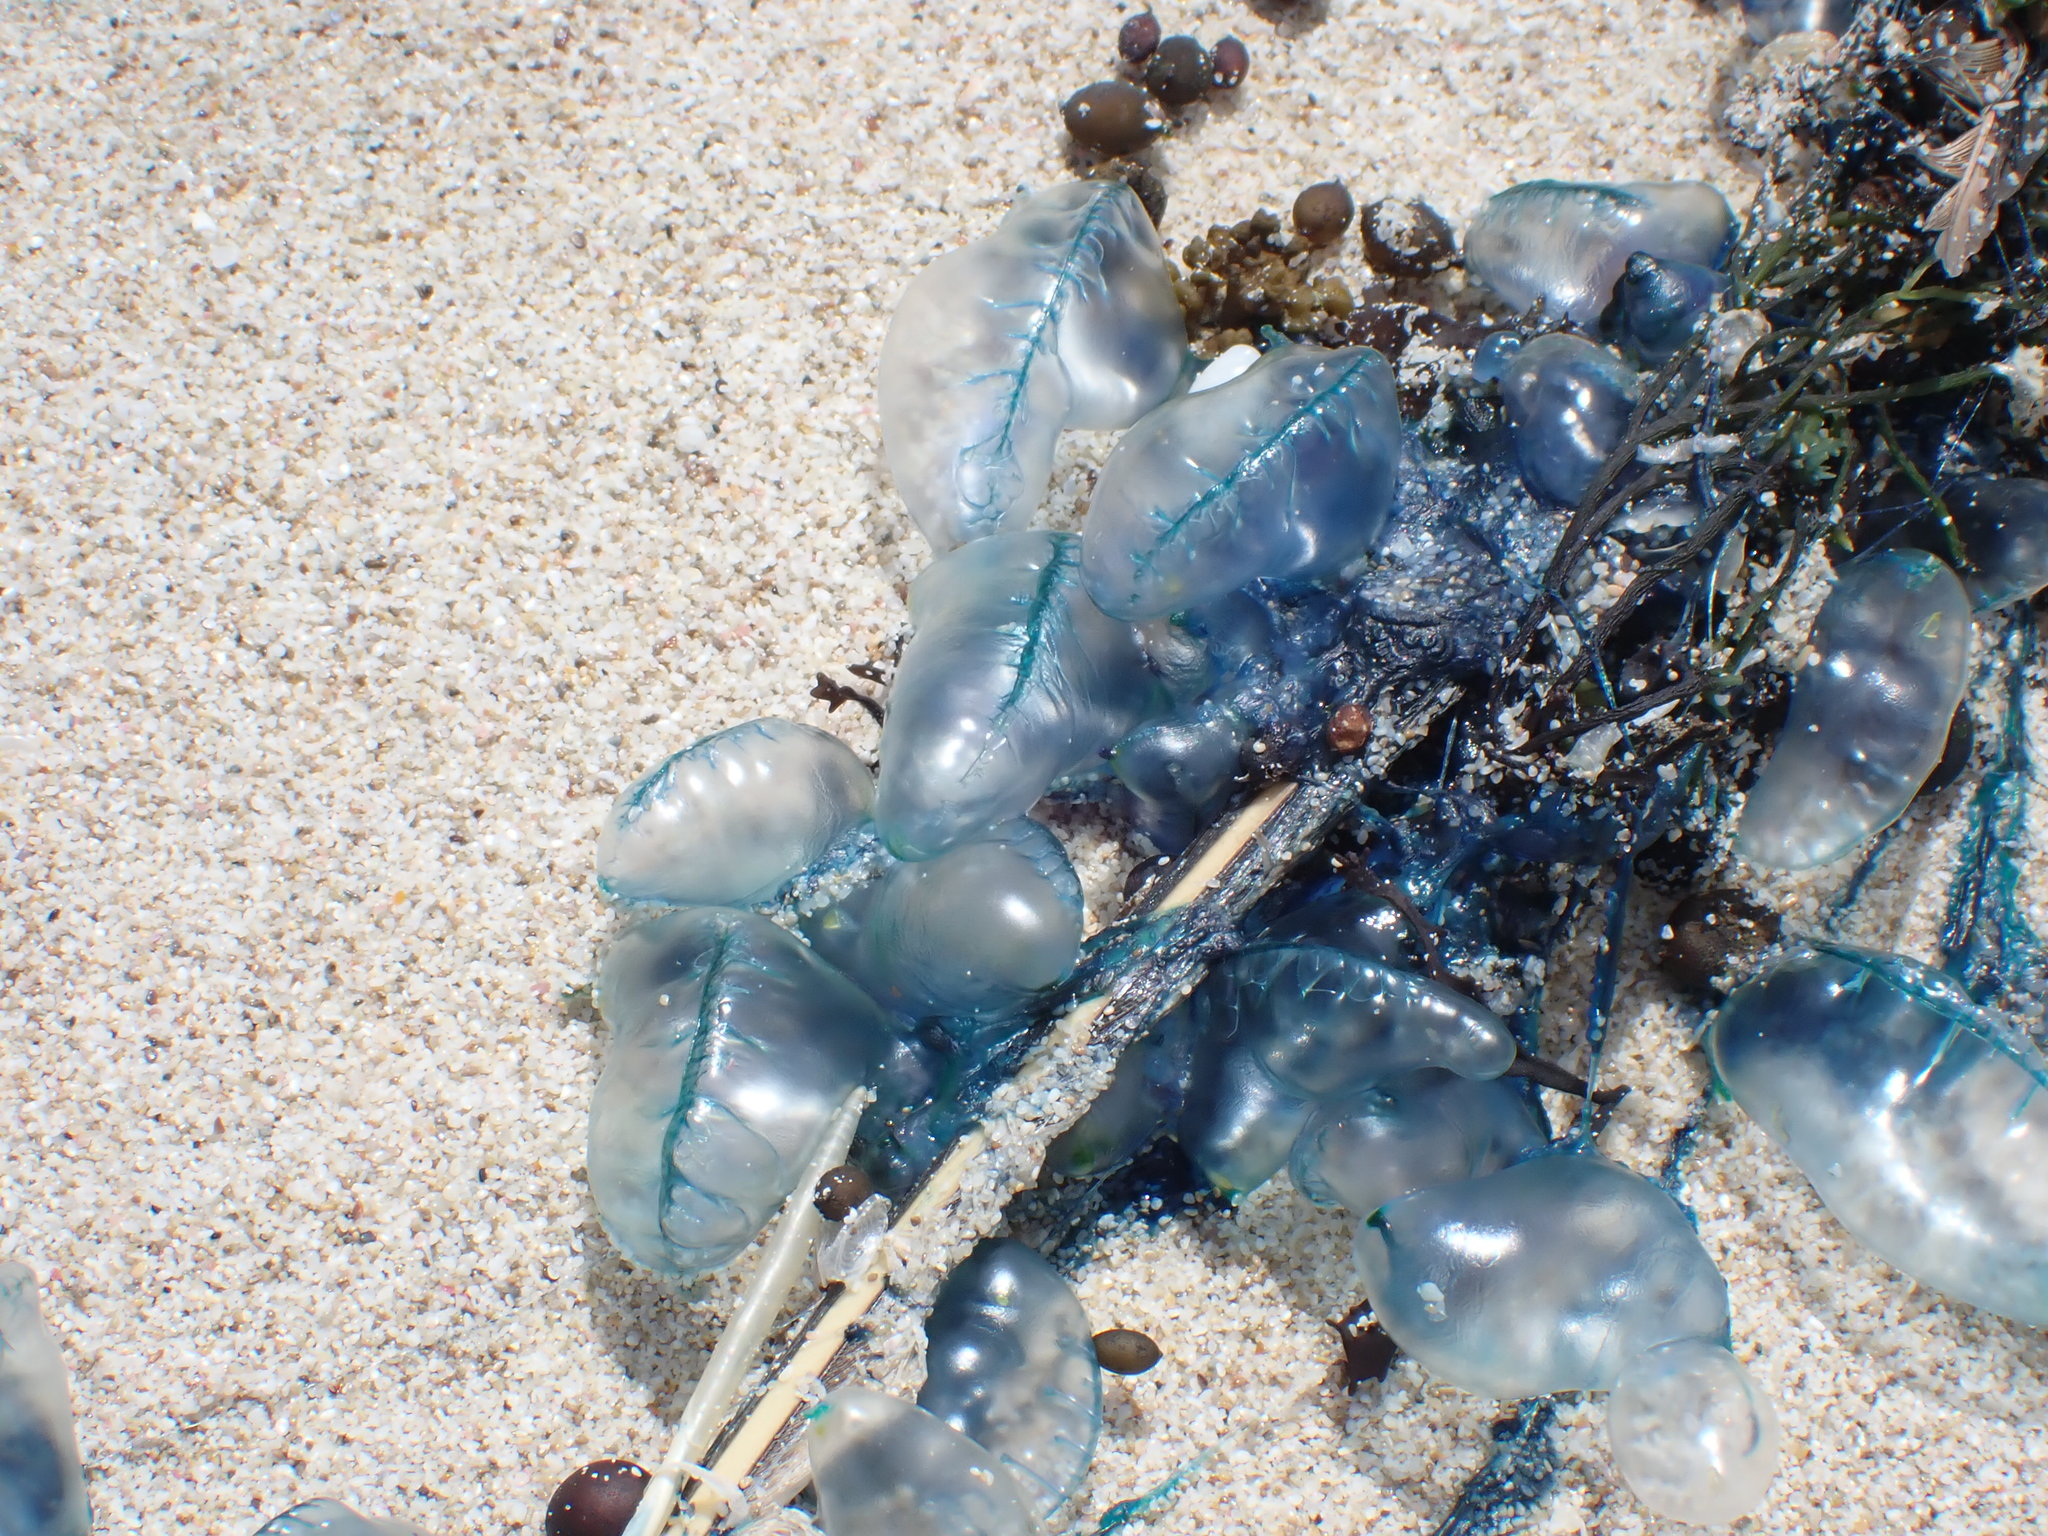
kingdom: Animalia
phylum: Cnidaria
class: Hydrozoa
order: Siphonophorae
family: Physaliidae
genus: Physalia
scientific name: Physalia physalis
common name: Portuguese man-of-war
